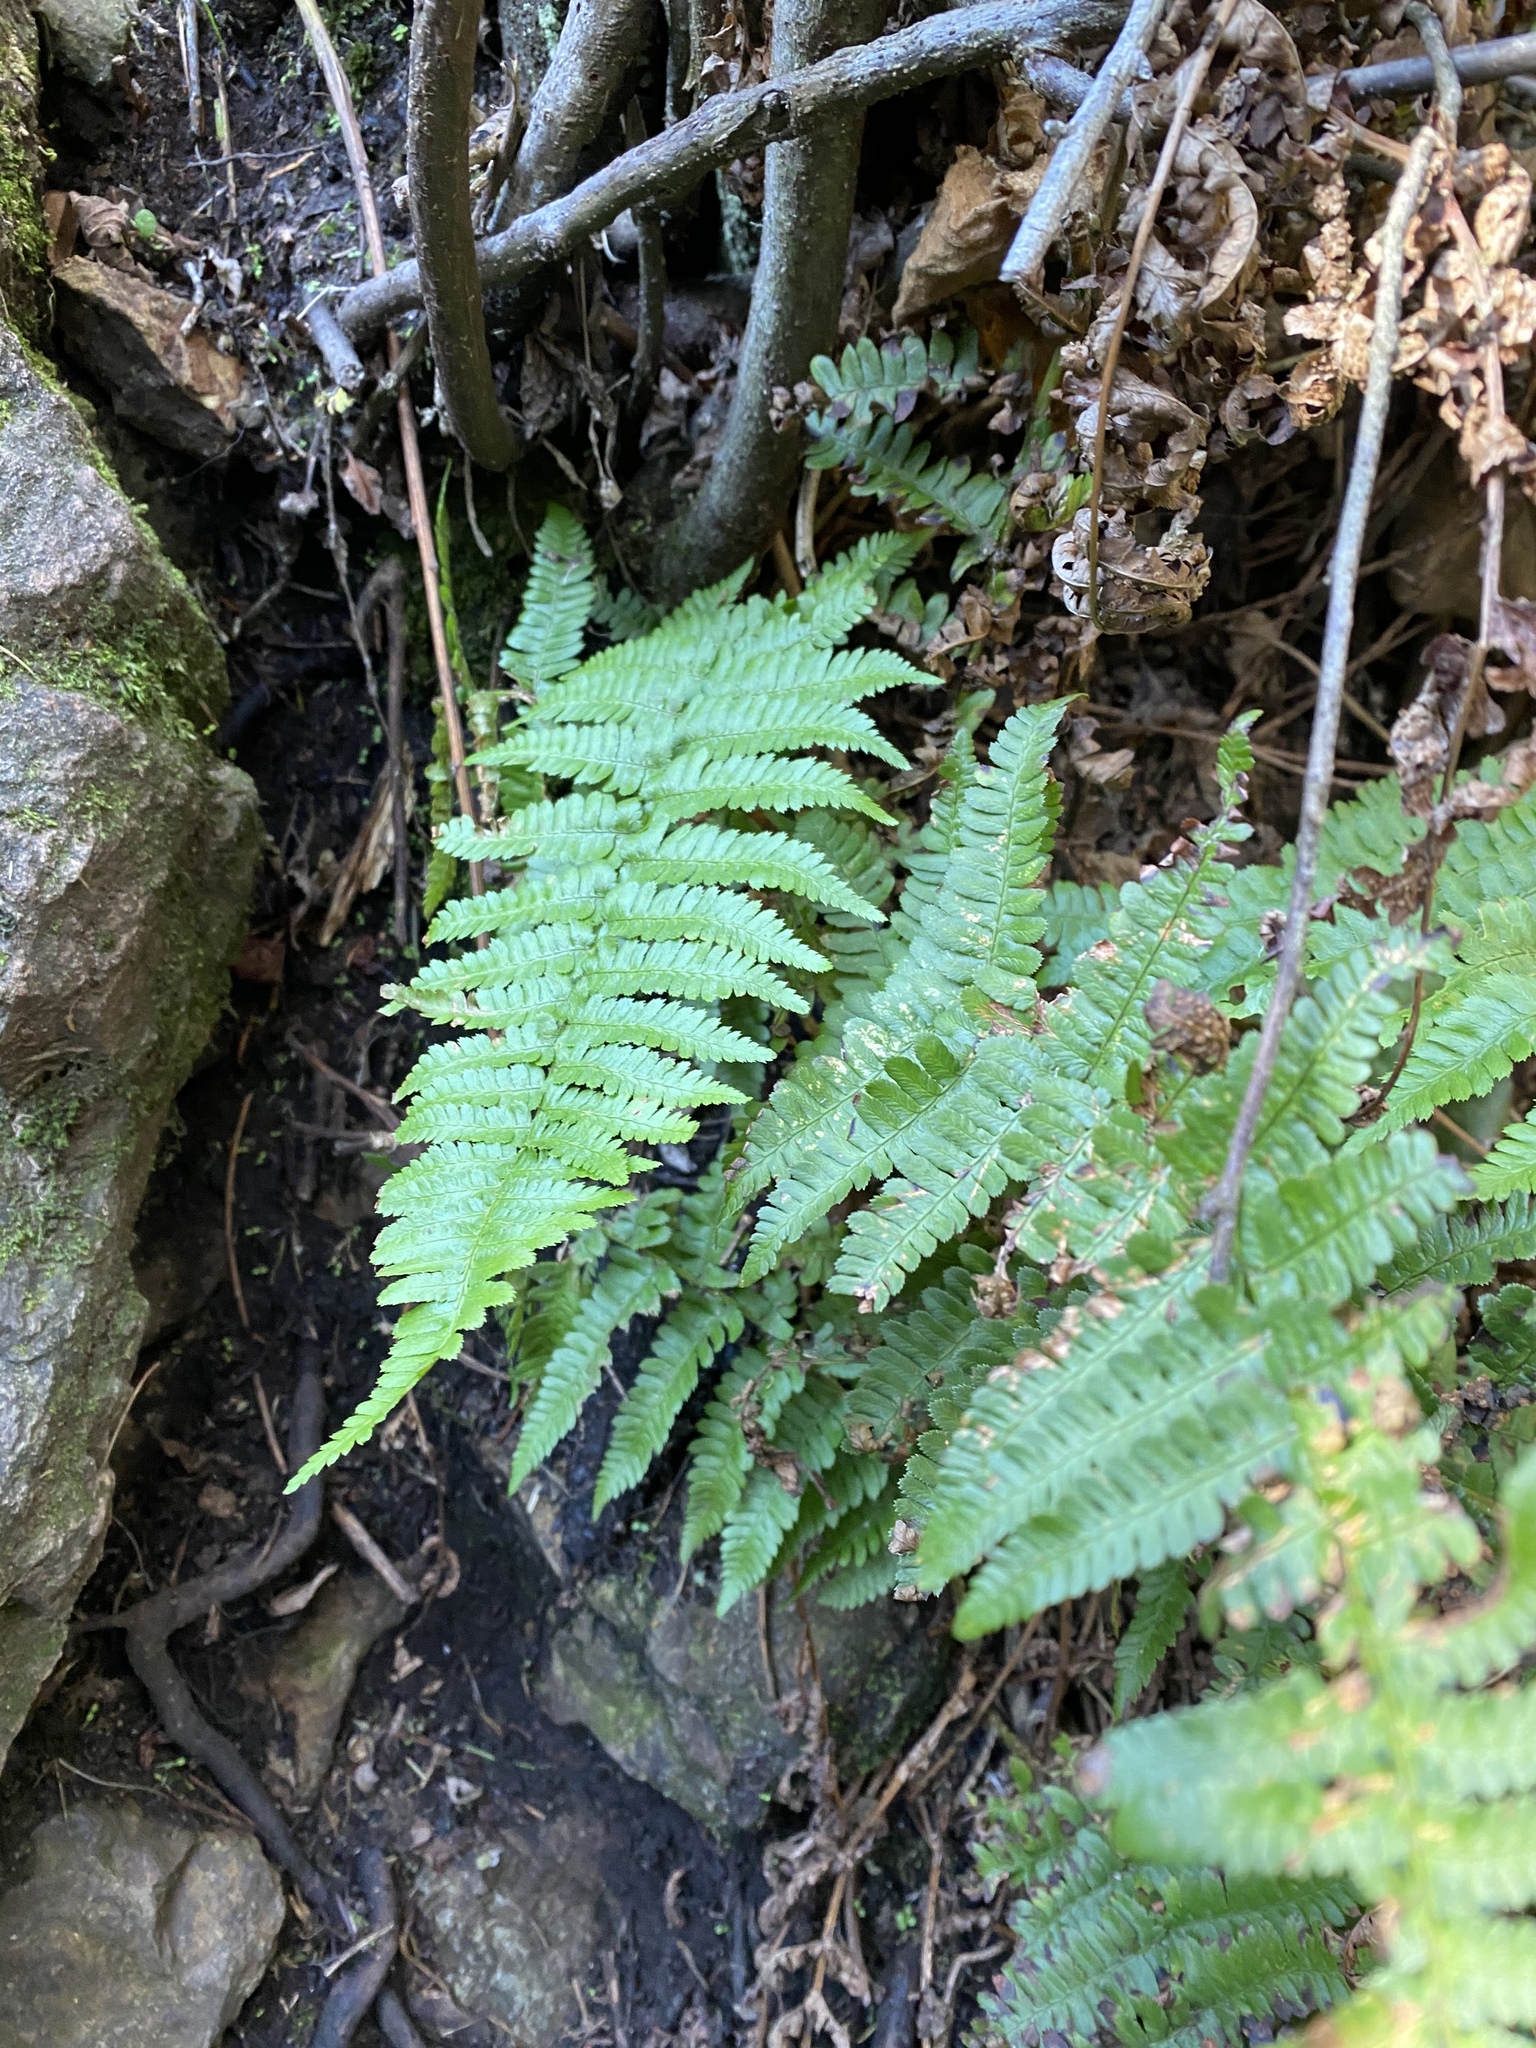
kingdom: Plantae
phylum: Tracheophyta
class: Polypodiopsida
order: Polypodiales
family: Dryopteridaceae
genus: Dryopteris
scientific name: Dryopteris arguta
